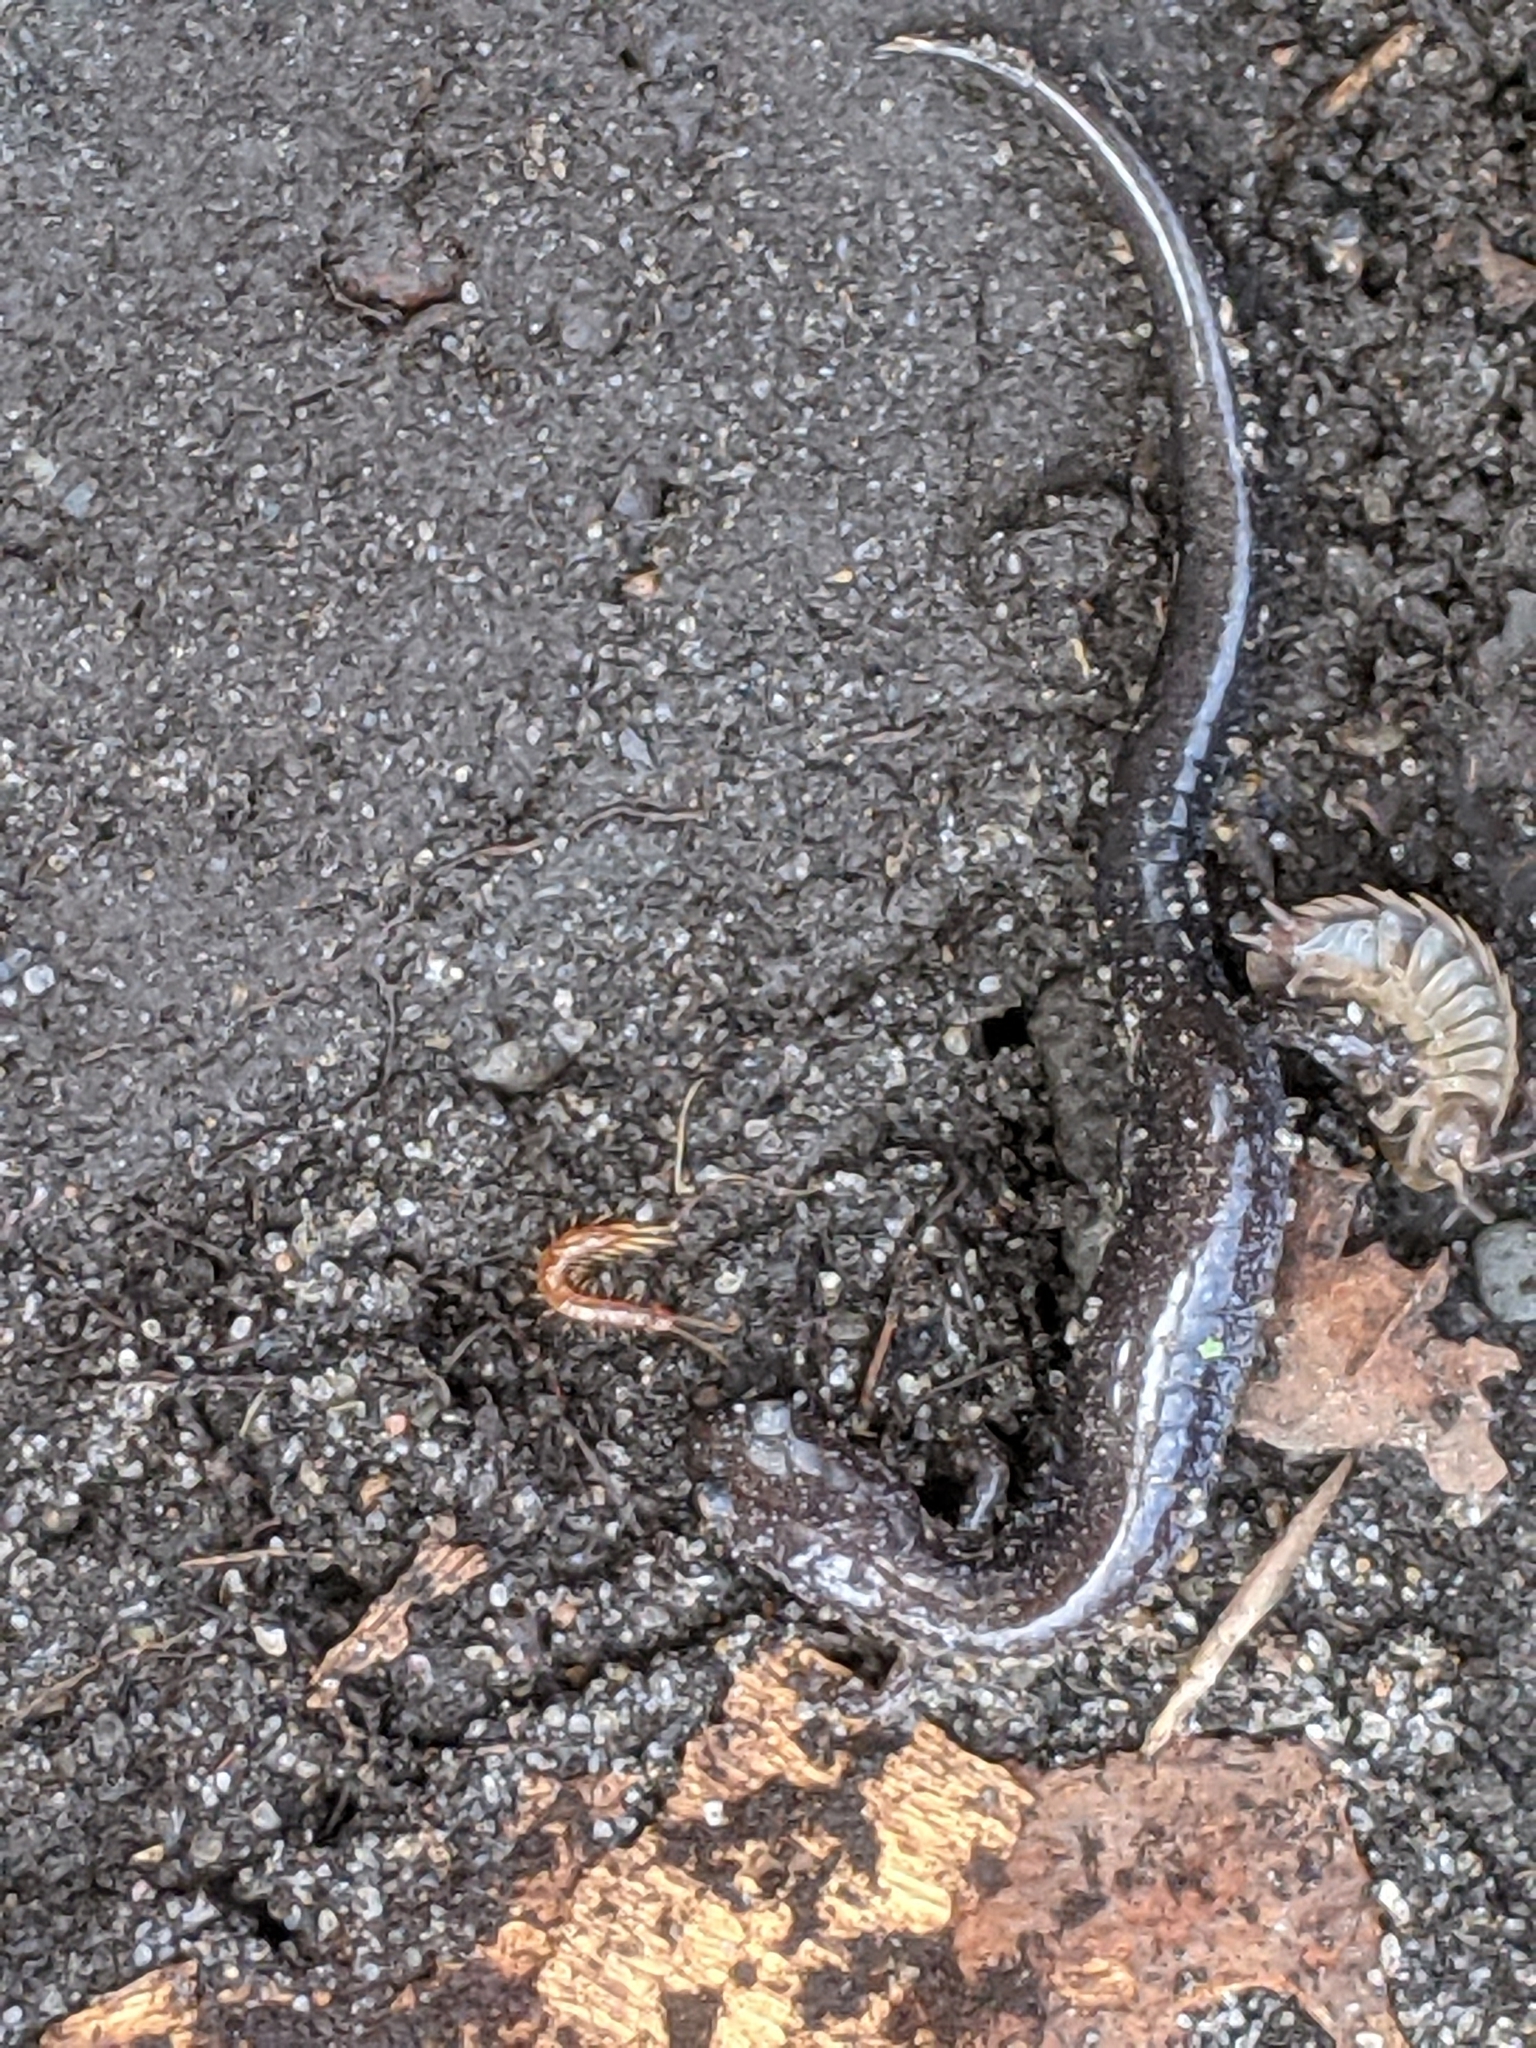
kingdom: Animalia
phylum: Chordata
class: Amphibia
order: Caudata
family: Plethodontidae
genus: Plethodon
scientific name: Plethodon cinereus
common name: Redback salamander
